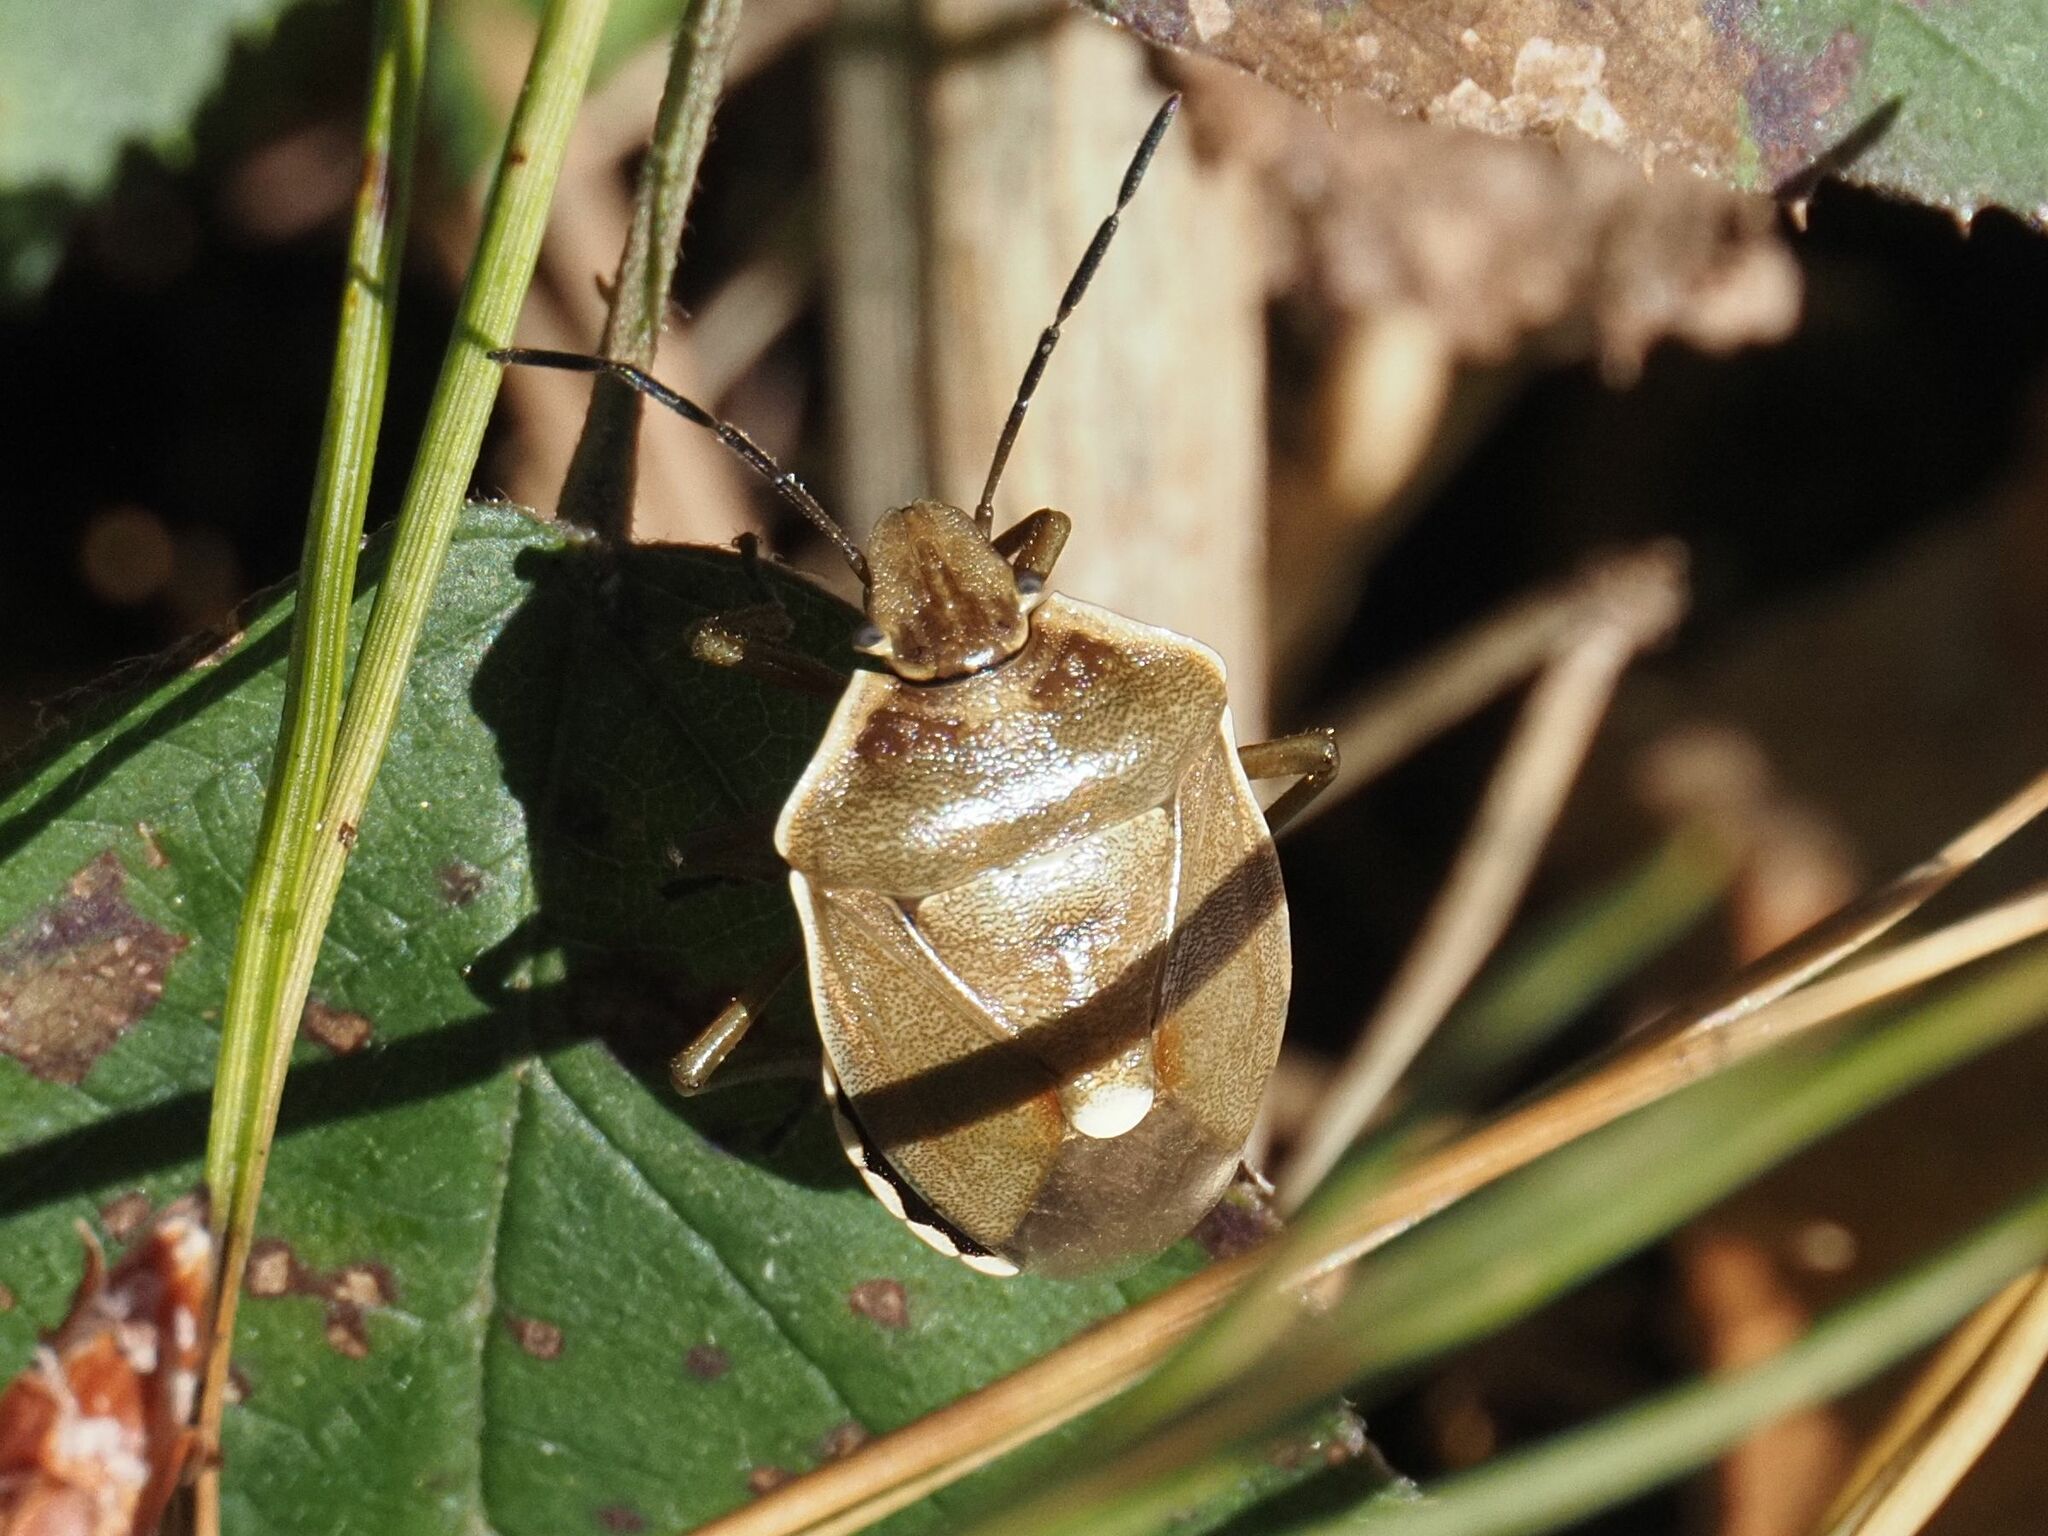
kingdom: Animalia
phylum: Arthropoda
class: Insecta
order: Hemiptera
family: Pentatomidae
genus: Chlorochroa
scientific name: Chlorochroa pinicola
